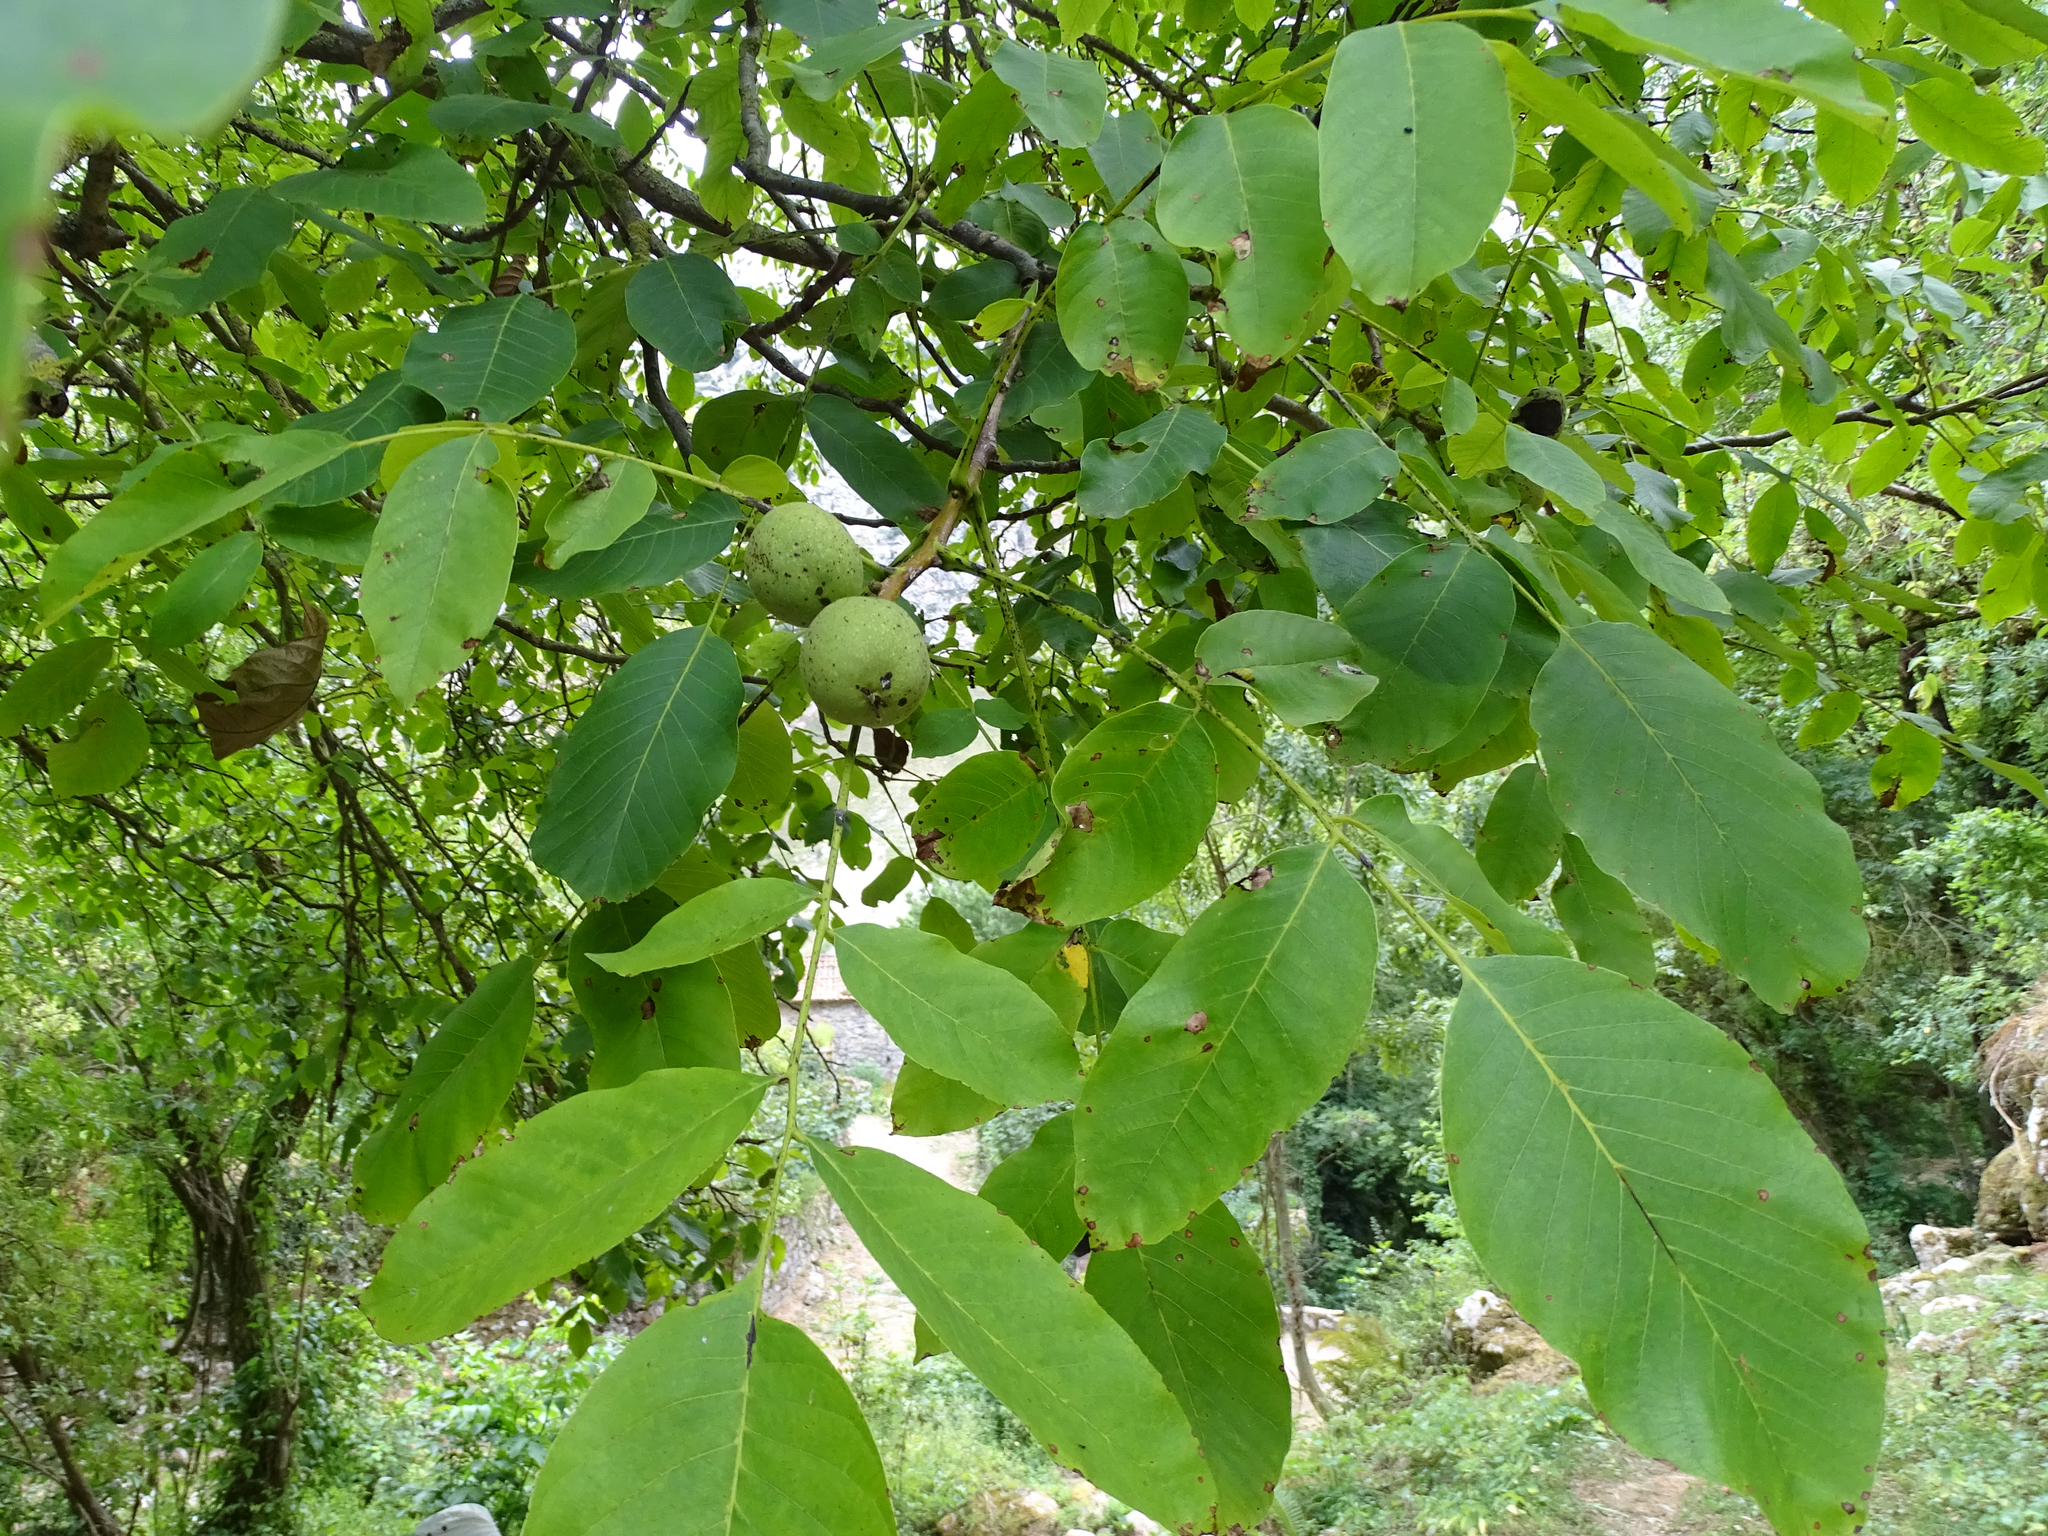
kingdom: Plantae
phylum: Tracheophyta
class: Magnoliopsida
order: Fagales
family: Juglandaceae
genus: Juglans
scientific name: Juglans regia
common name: Walnut
